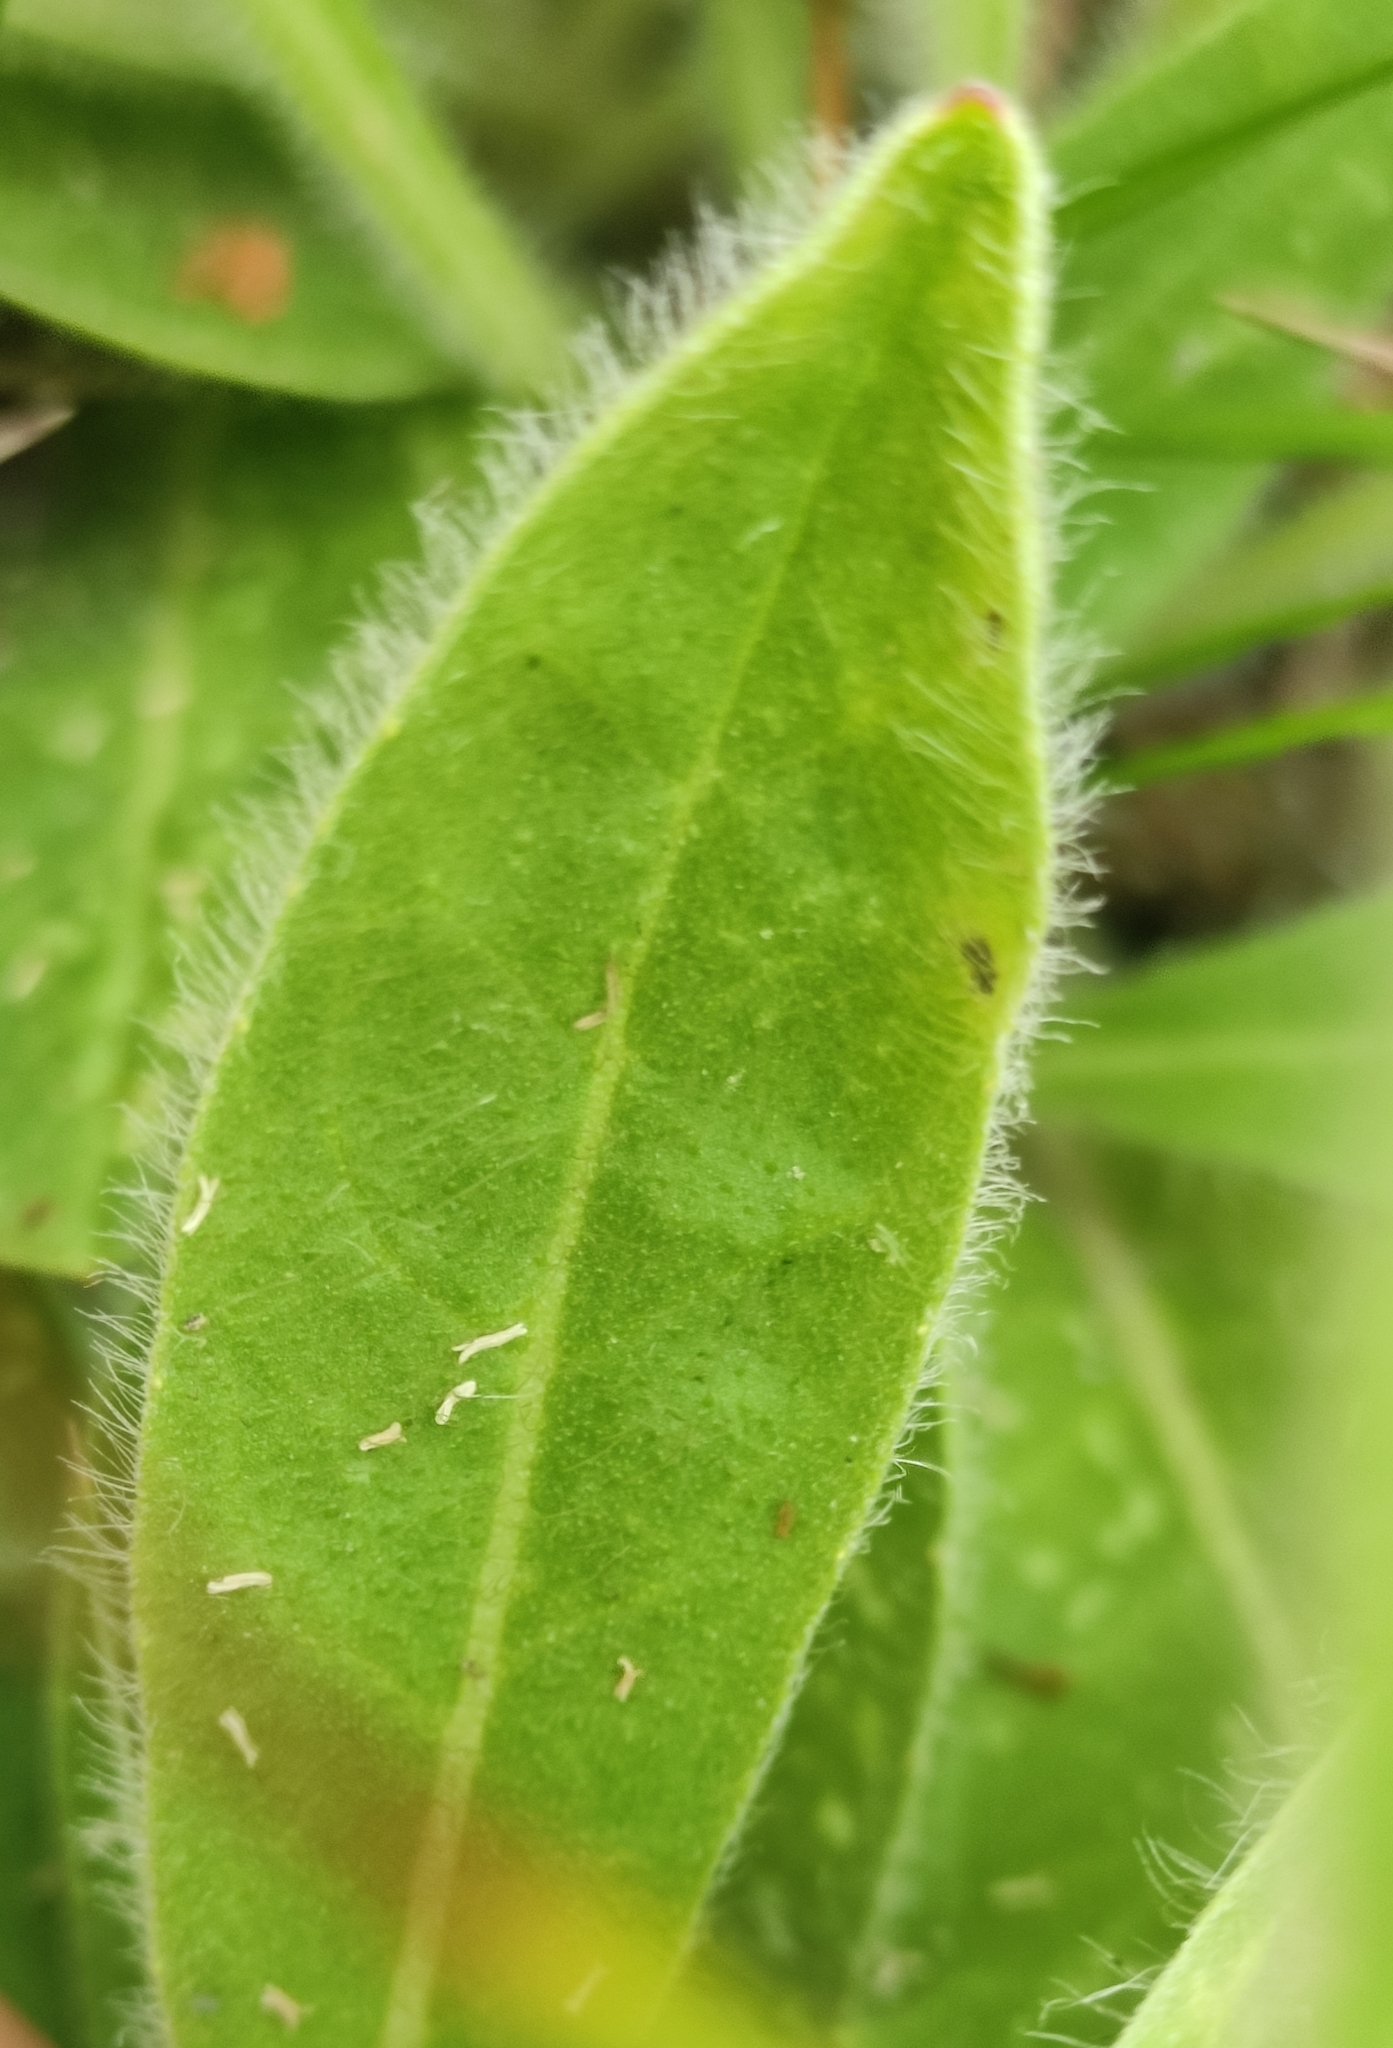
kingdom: Plantae
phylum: Tracheophyta
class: Magnoliopsida
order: Asterales
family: Asteraceae
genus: Pilosella
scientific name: Pilosella
